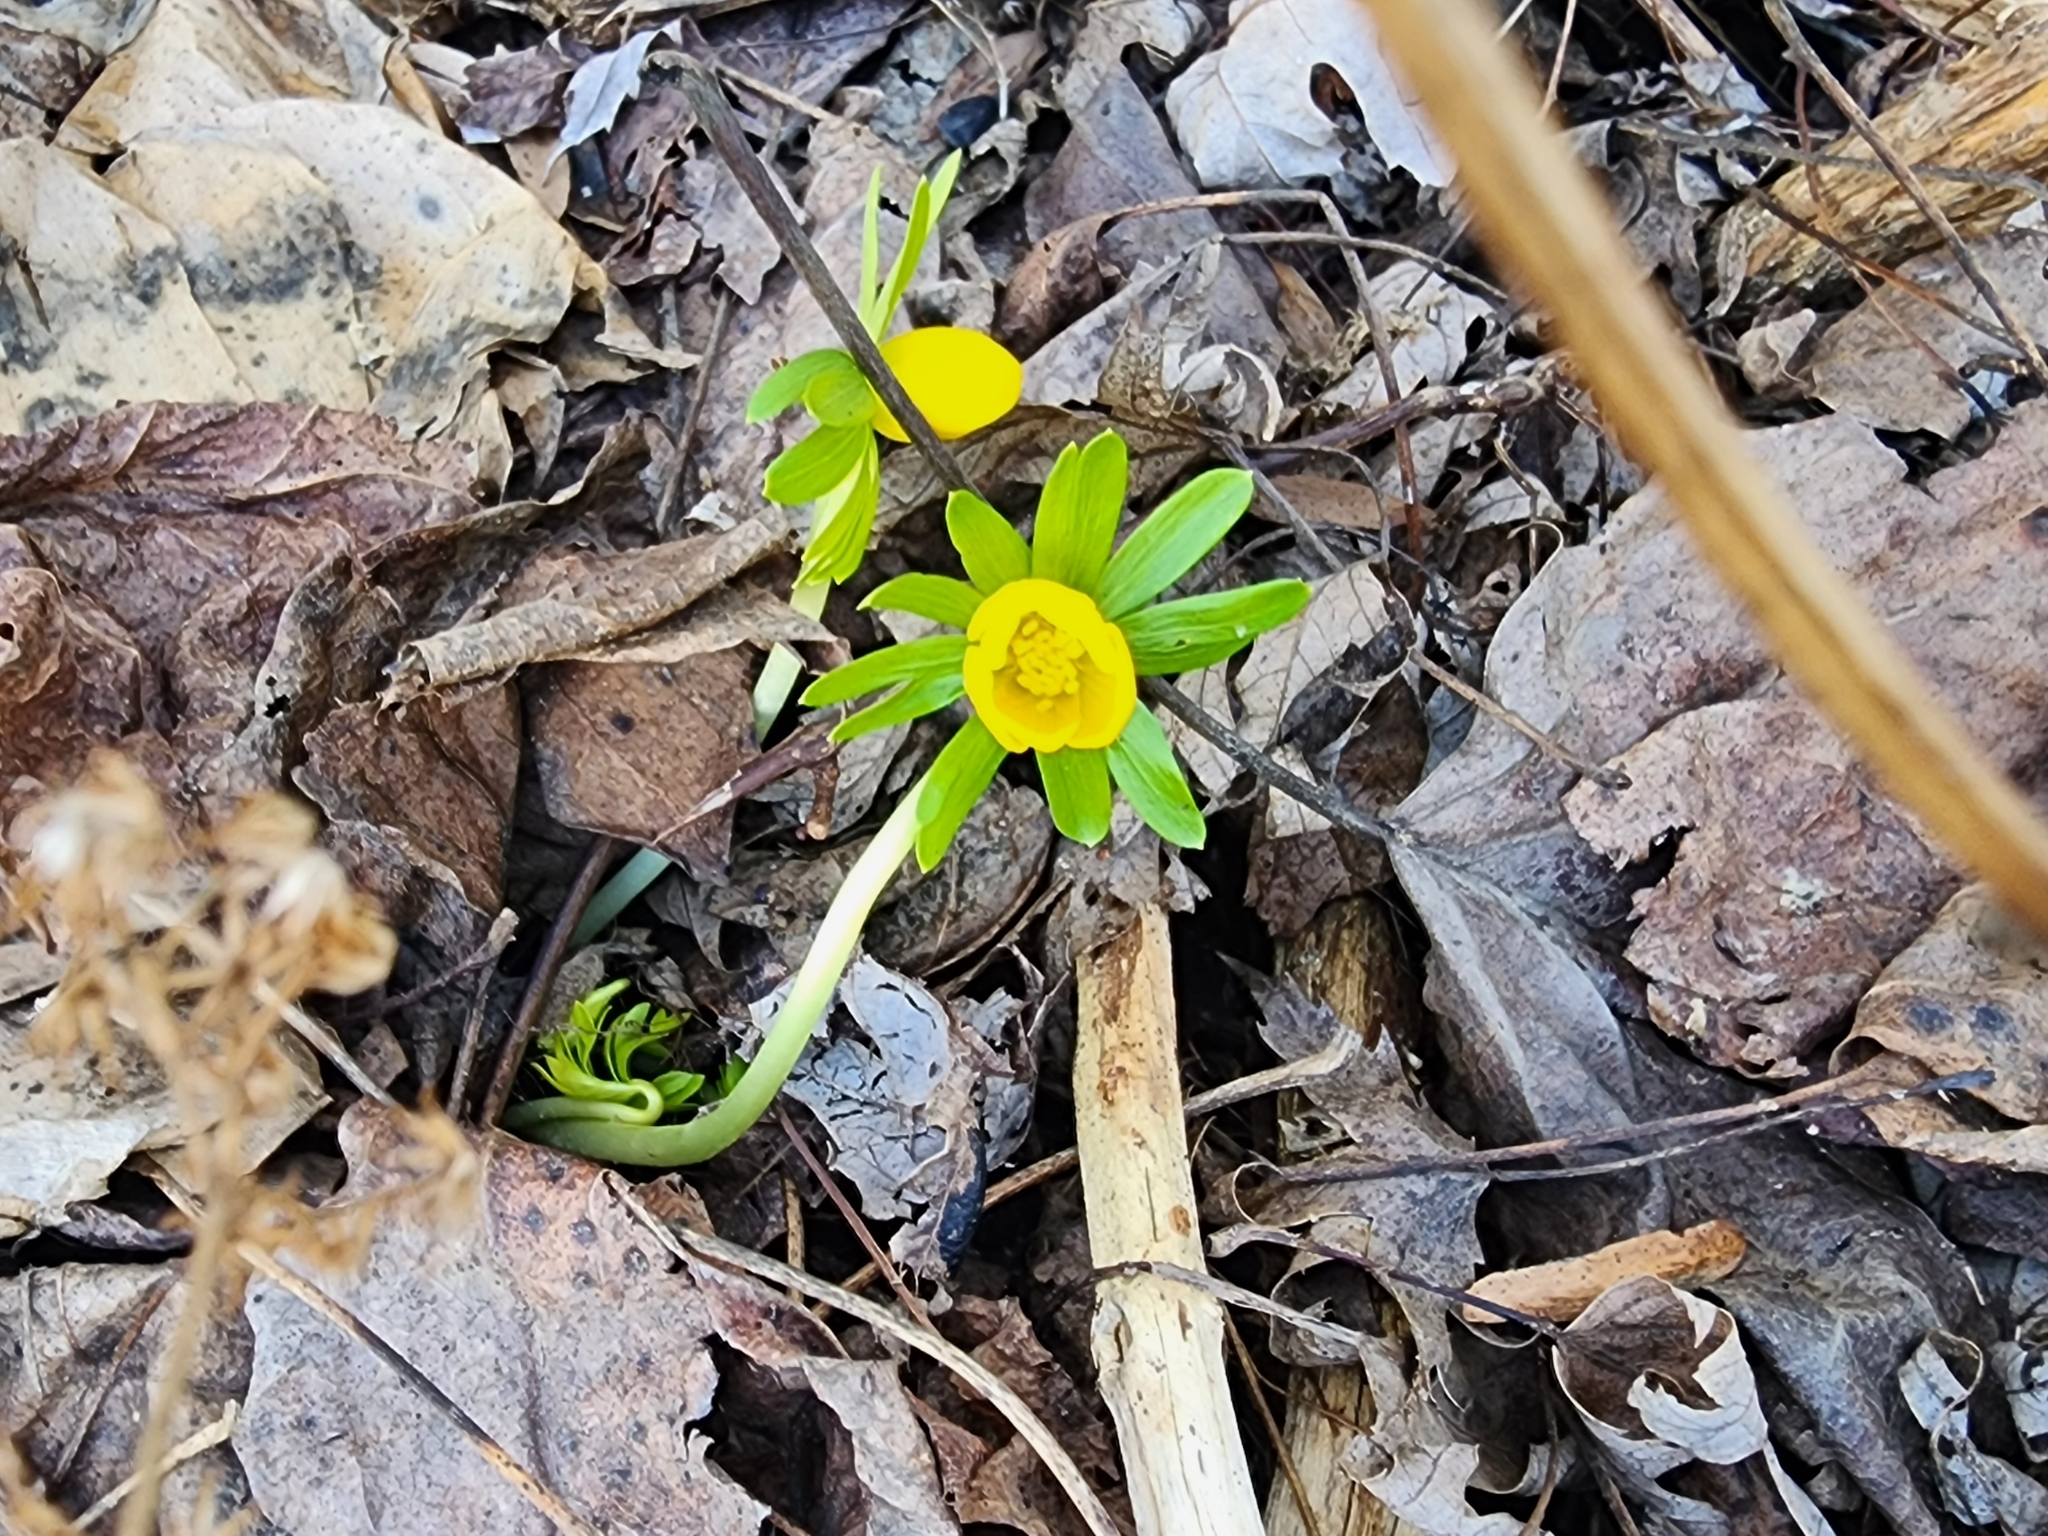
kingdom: Plantae
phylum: Tracheophyta
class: Magnoliopsida
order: Ranunculales
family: Ranunculaceae
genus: Eranthis
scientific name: Eranthis hyemalis
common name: Winter aconite
